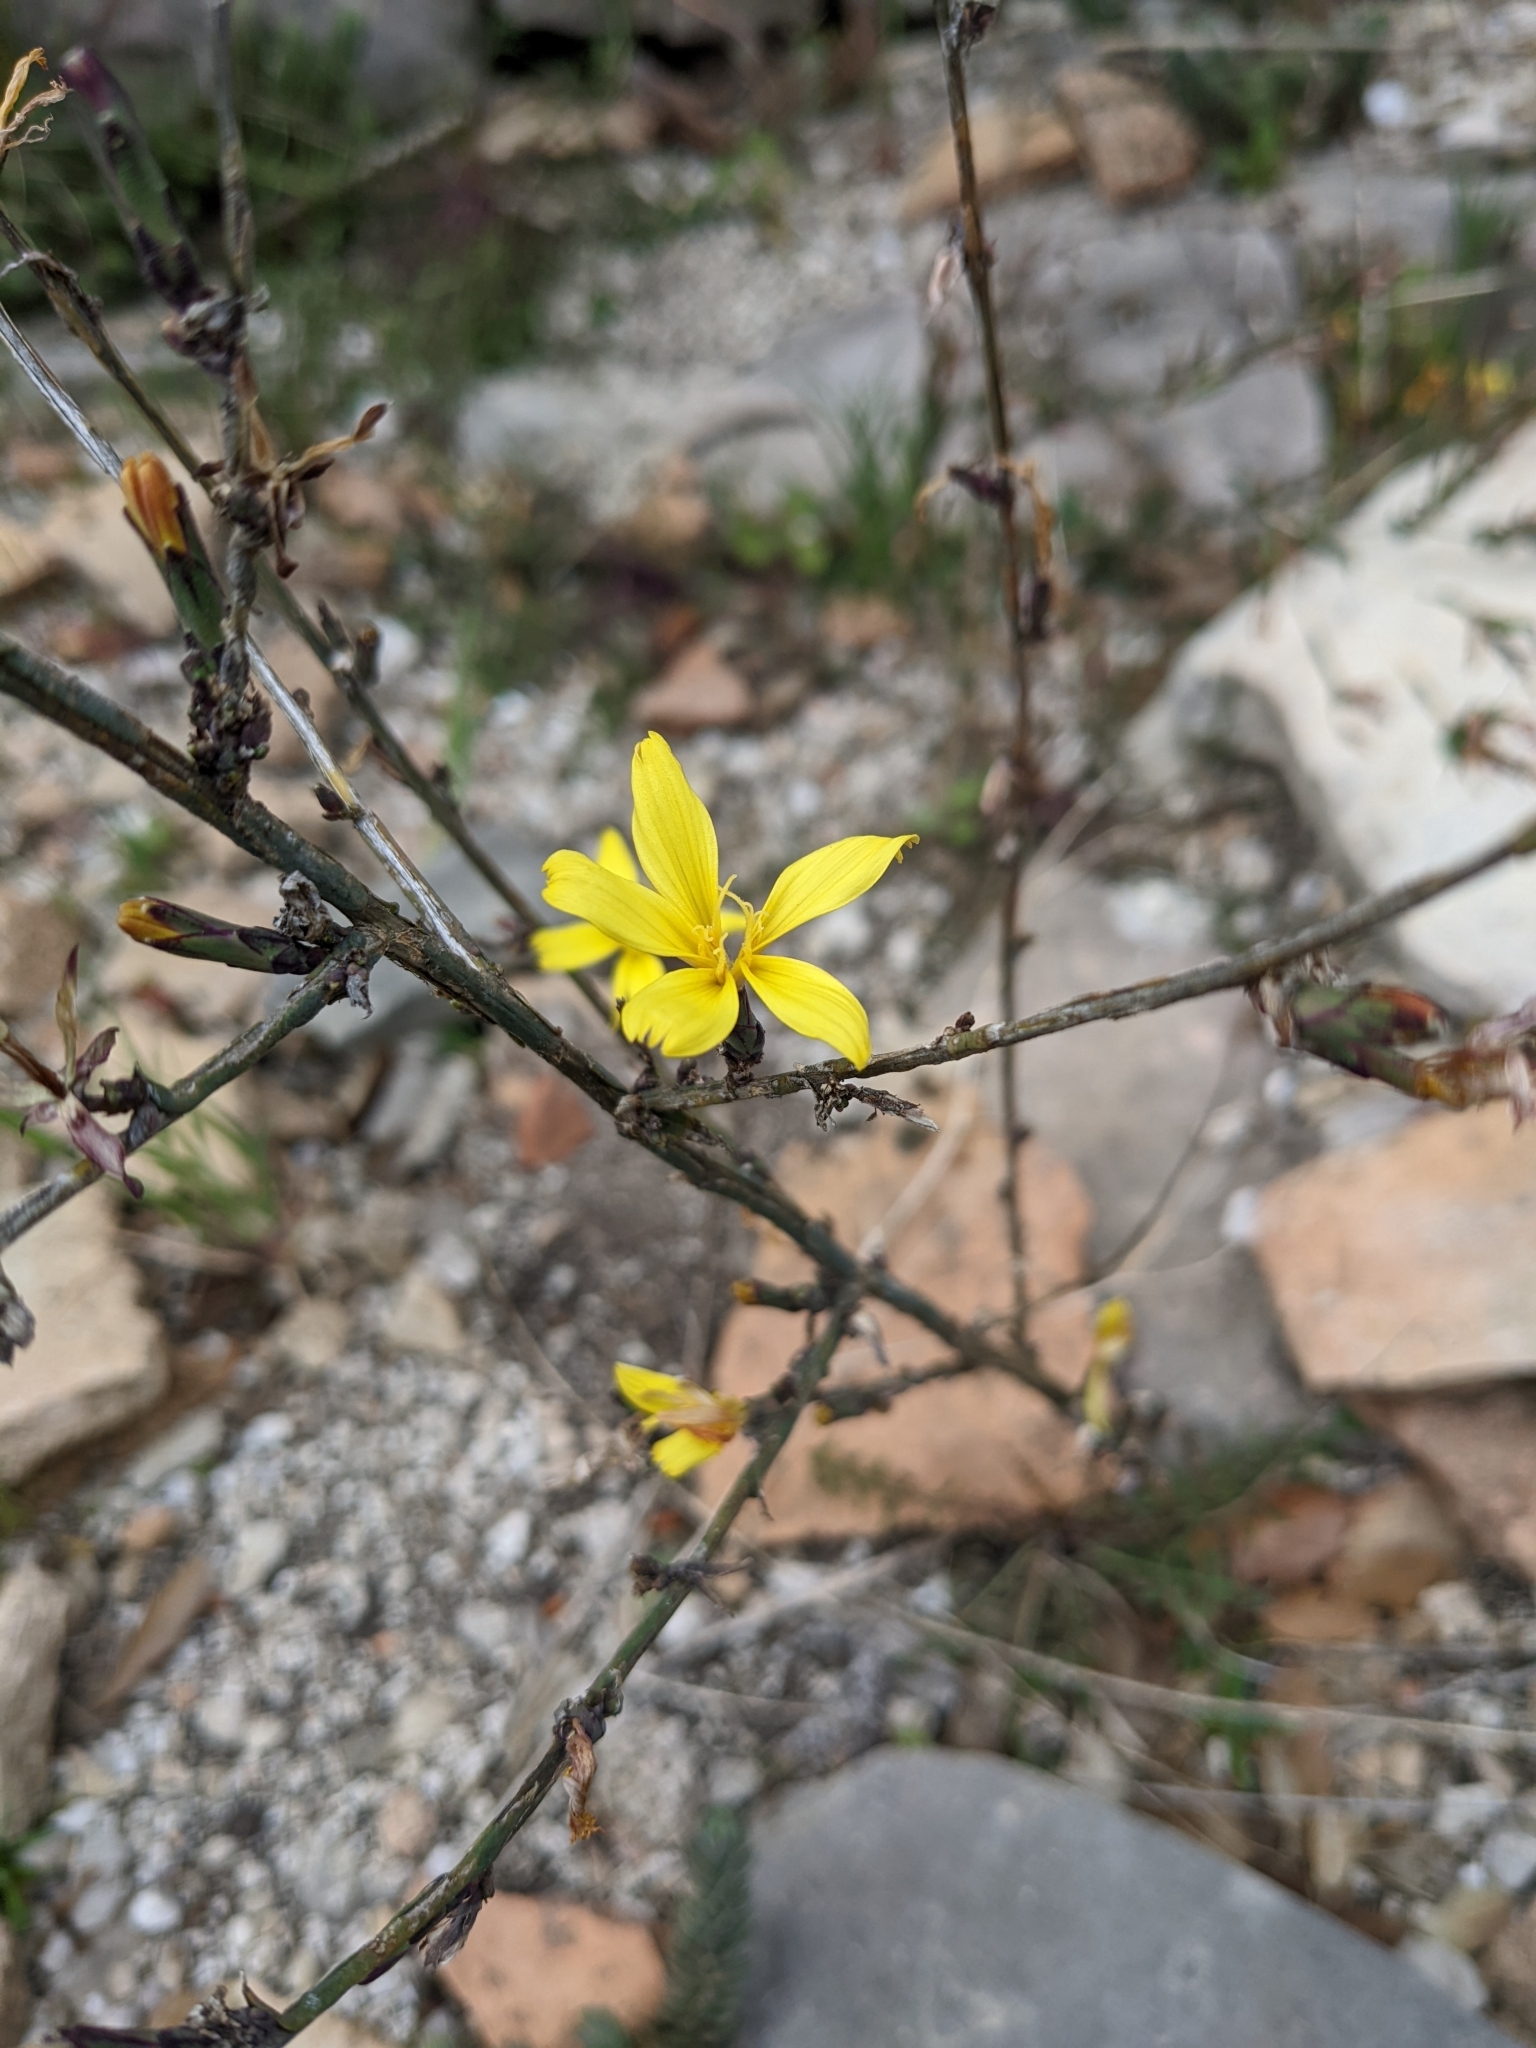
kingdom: Plantae
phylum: Tracheophyta
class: Magnoliopsida
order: Asterales
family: Asteraceae
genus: Lactuca
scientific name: Lactuca viminea
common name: Pliant lettuce
